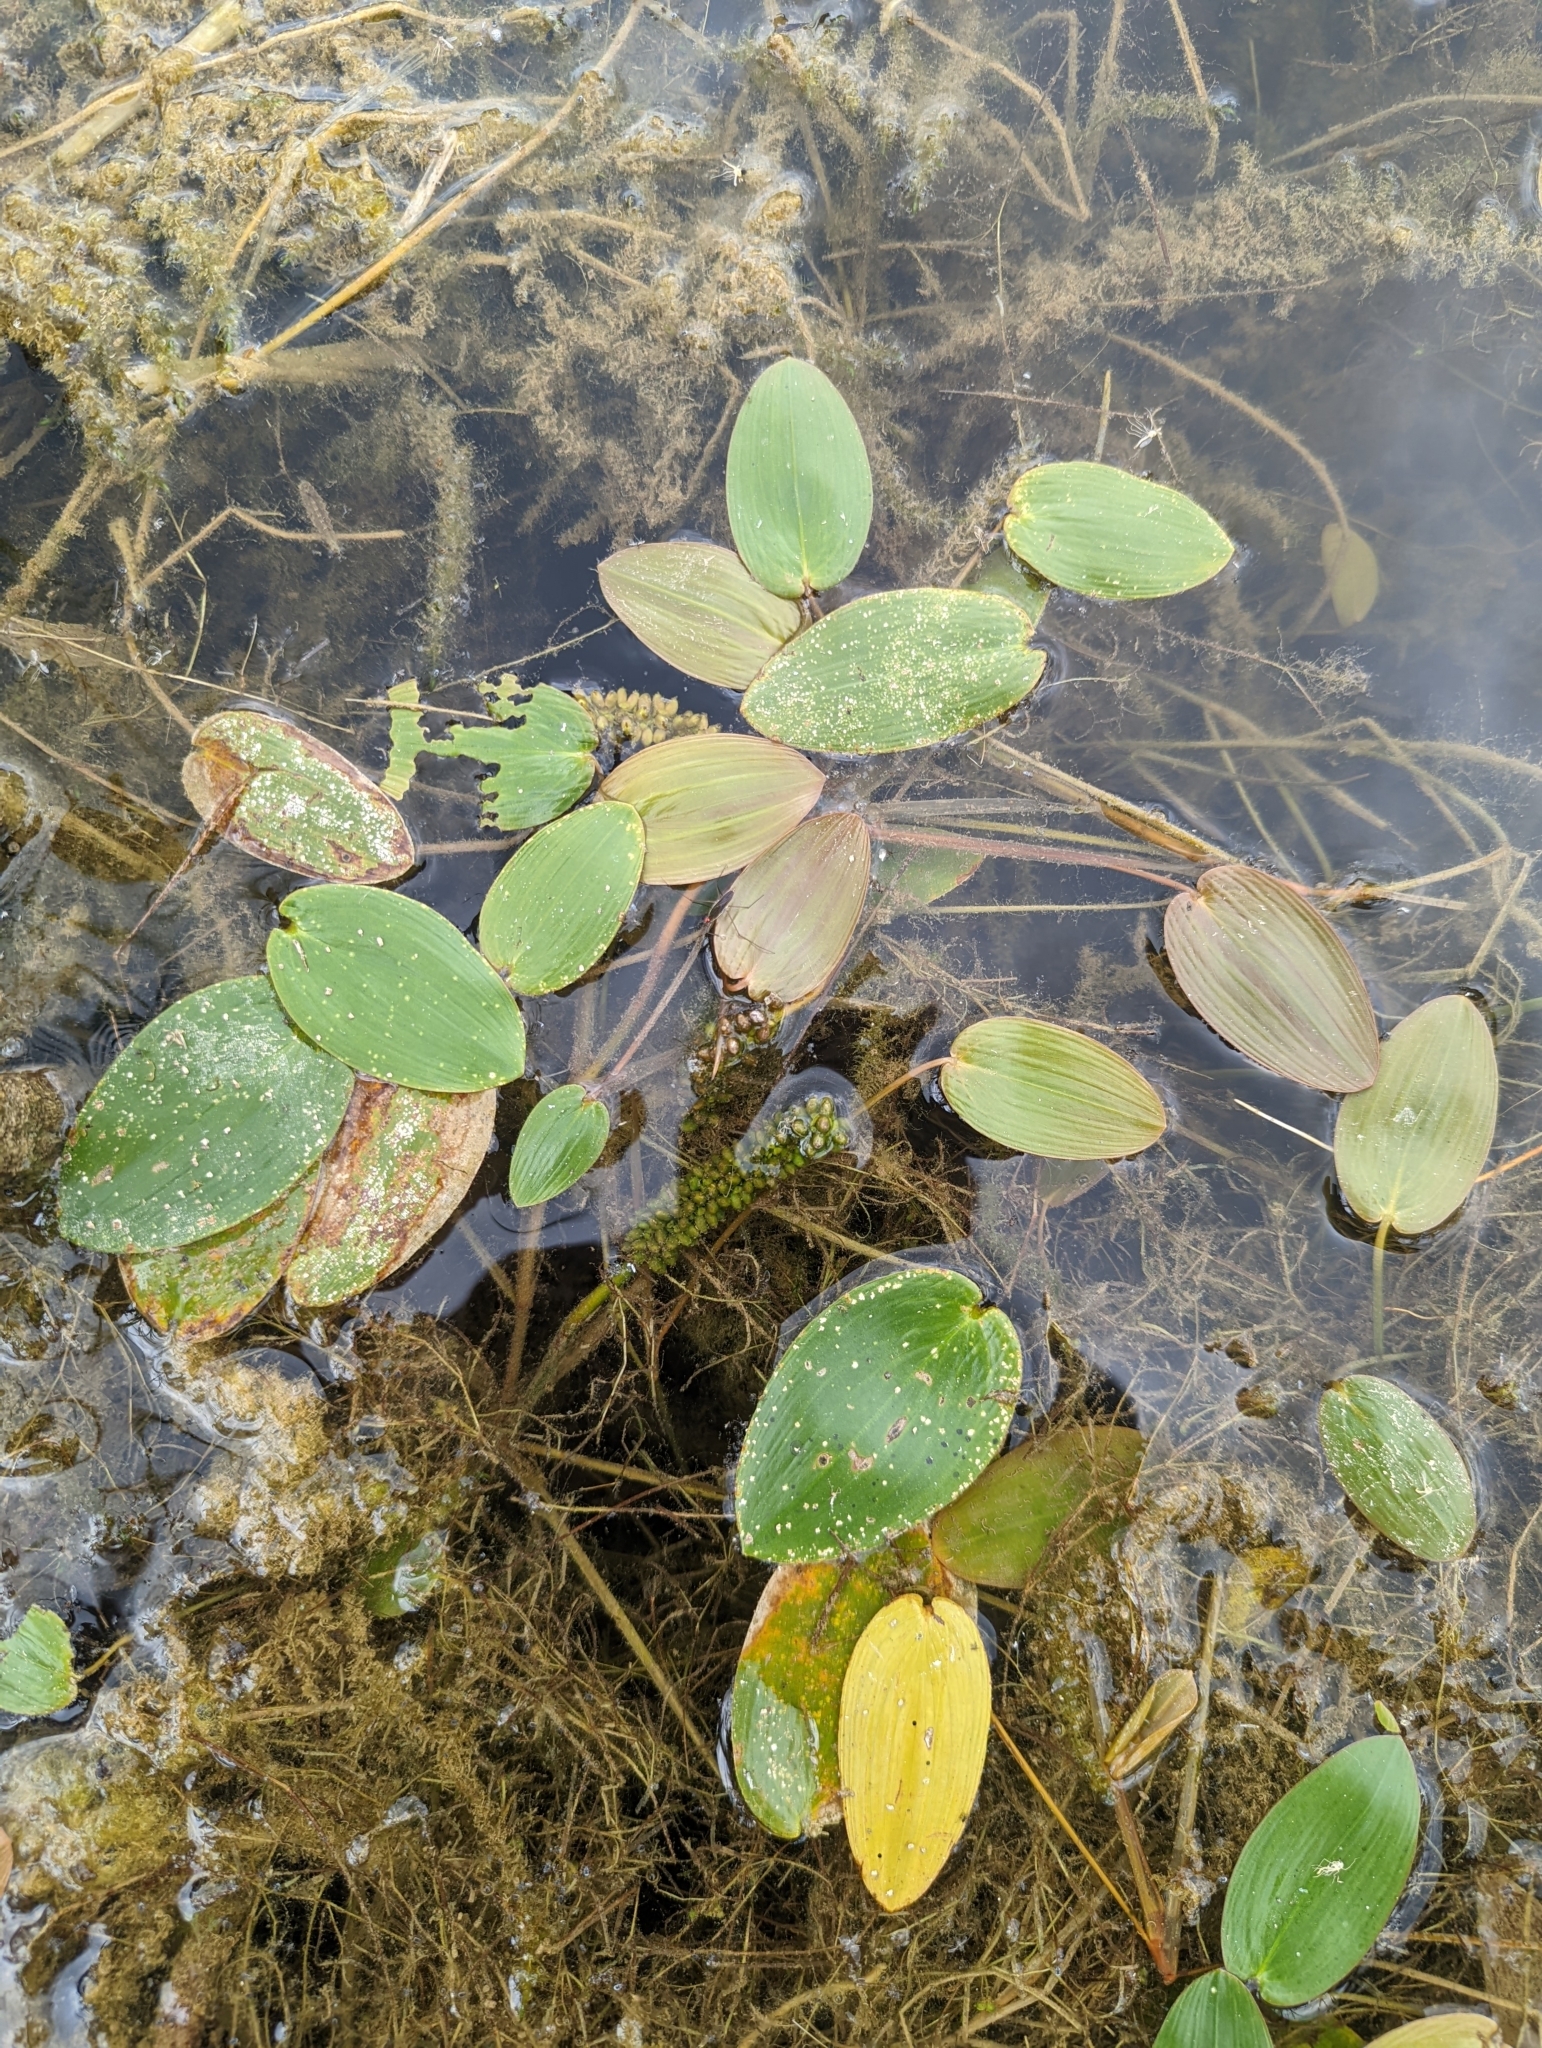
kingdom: Plantae
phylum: Tracheophyta
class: Liliopsida
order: Alismatales
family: Potamogetonaceae
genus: Potamogeton
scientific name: Potamogeton natans
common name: Broad-leaved pondweed
